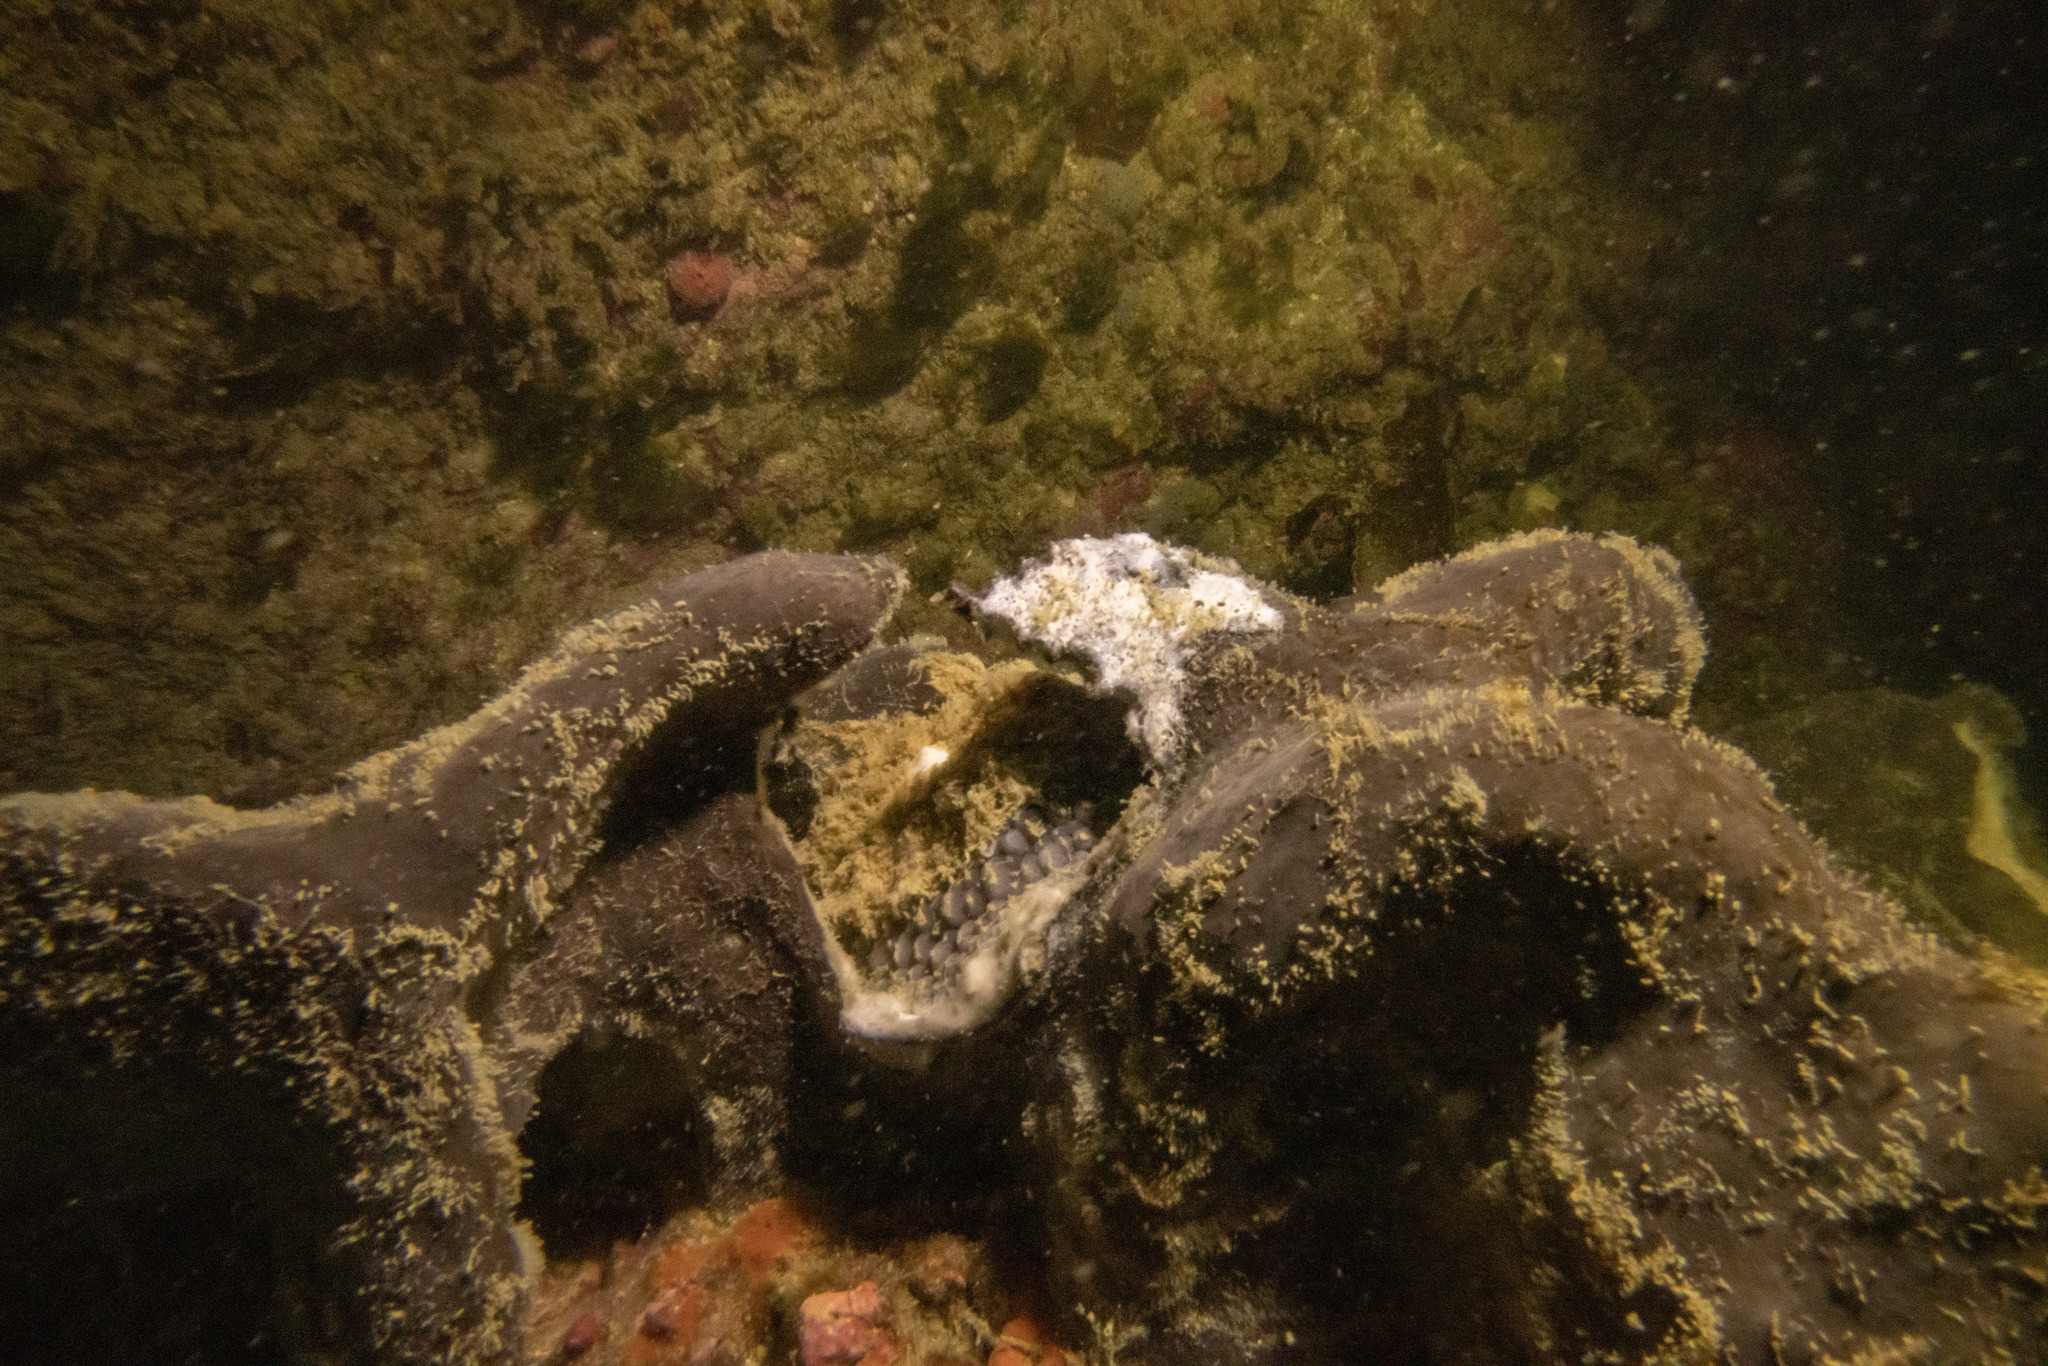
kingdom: Animalia
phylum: Porifera
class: Demospongiae
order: Tetractinellida
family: Ancorinidae
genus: Ecionemia
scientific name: Ecionemia alata
